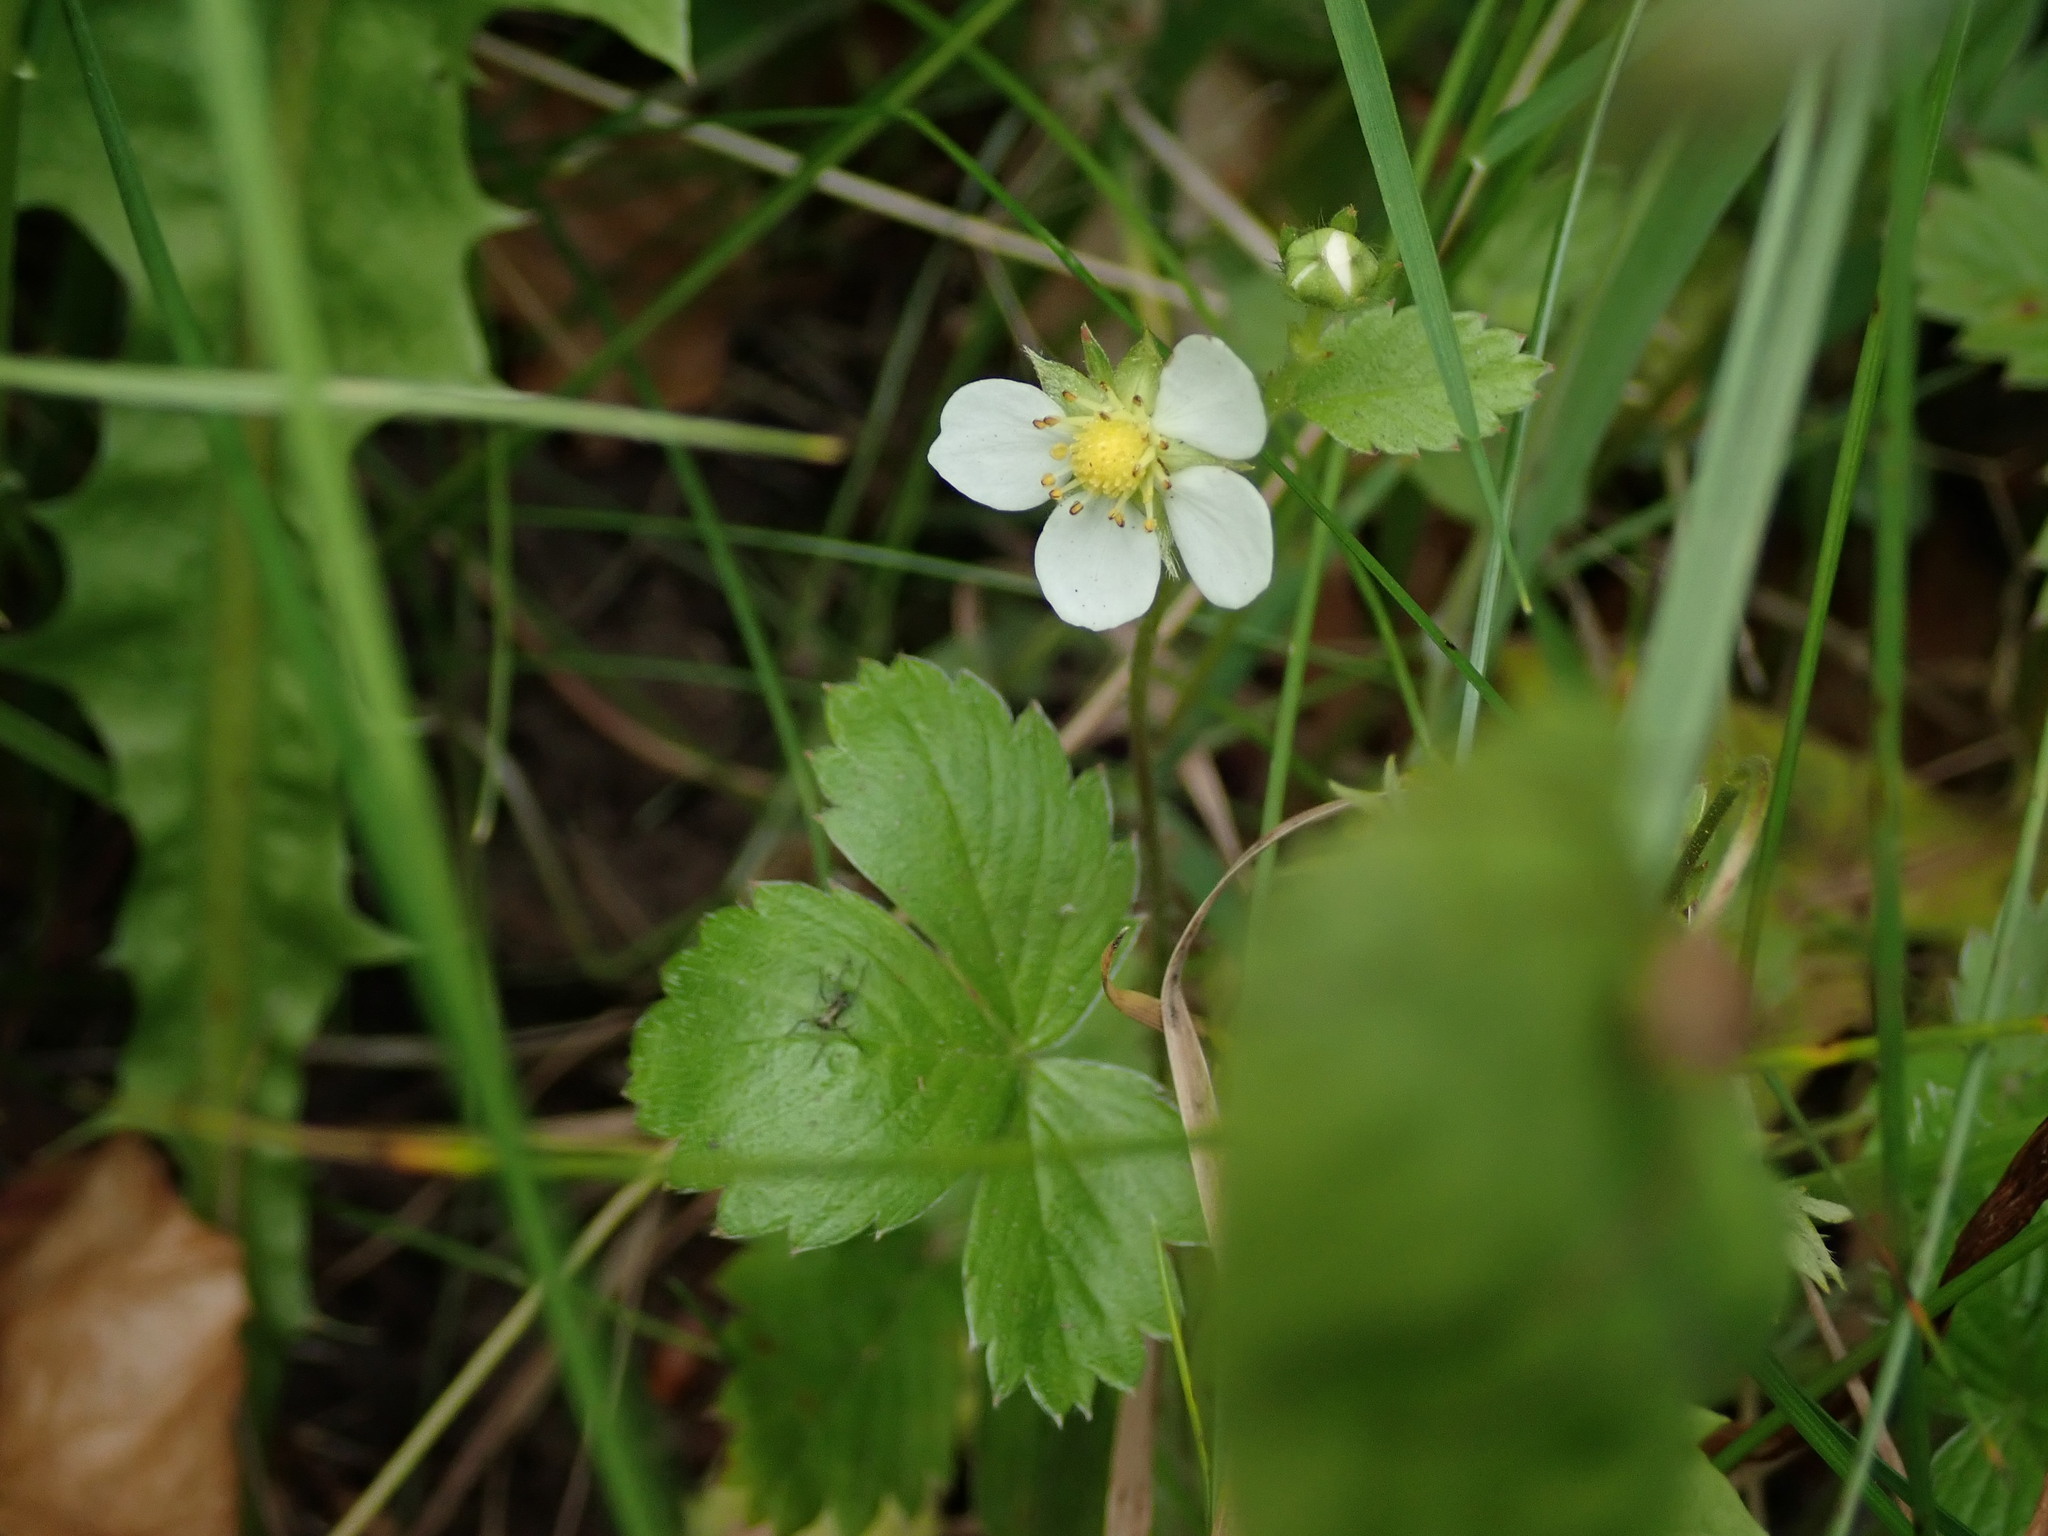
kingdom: Plantae
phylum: Tracheophyta
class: Magnoliopsida
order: Rosales
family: Rosaceae
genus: Fragaria
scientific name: Fragaria vesca
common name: Wild strawberry
